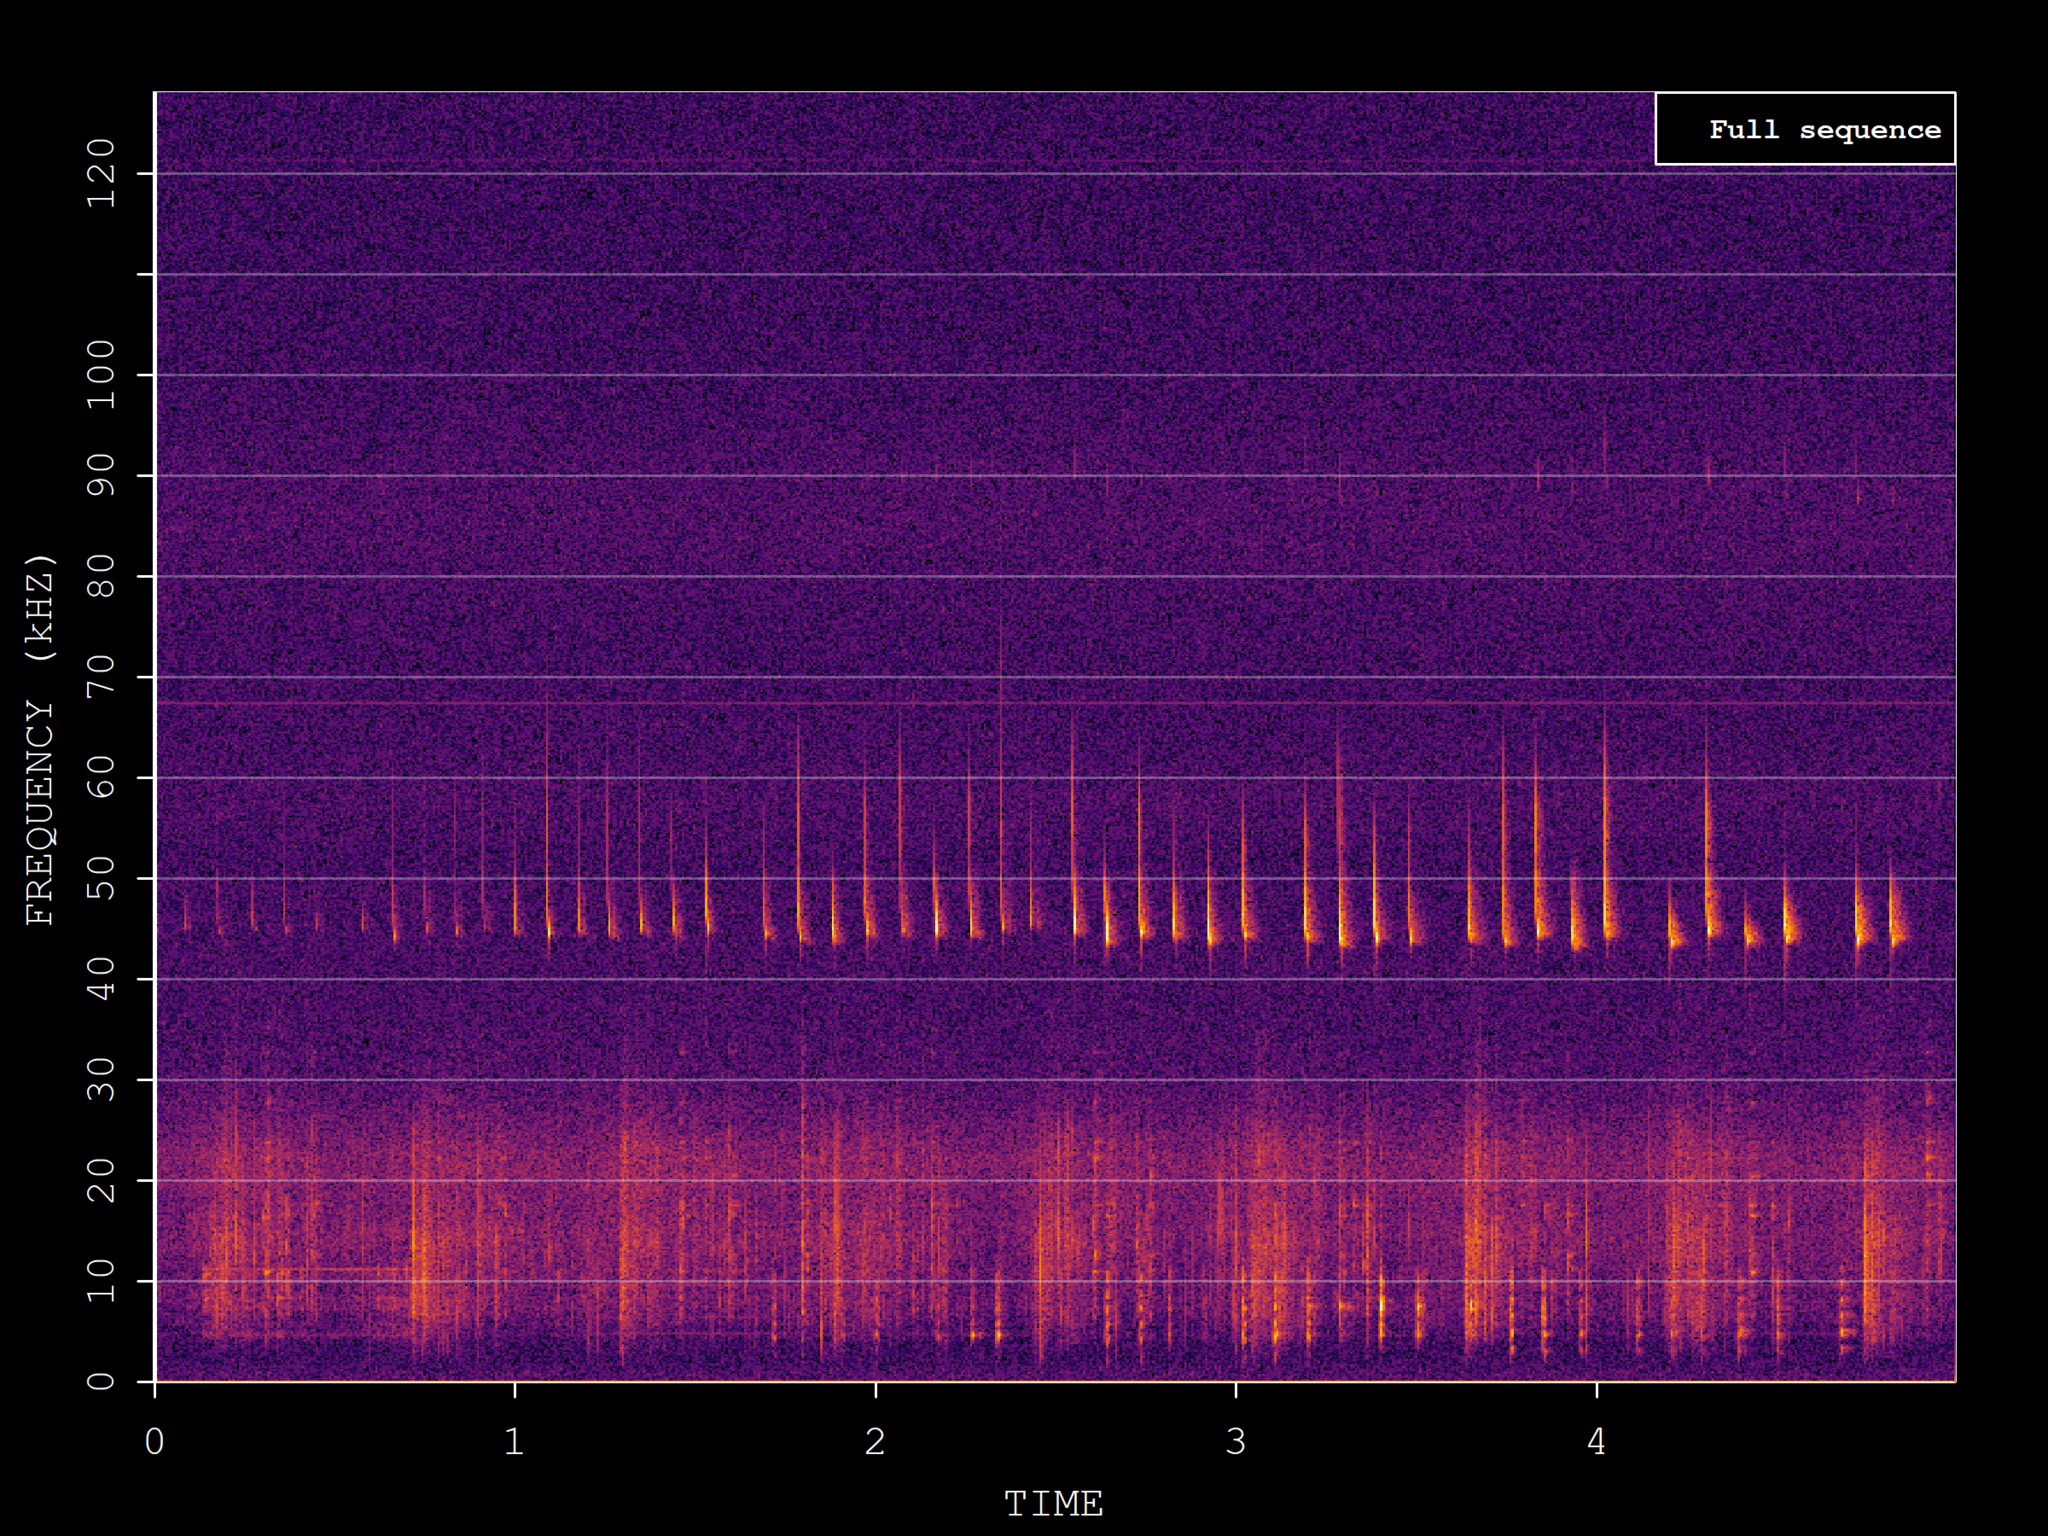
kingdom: Animalia
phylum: Chordata
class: Mammalia
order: Chiroptera
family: Vespertilionidae
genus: Pipistrellus
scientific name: Pipistrellus pipistrellus
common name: Common pipistrelle
